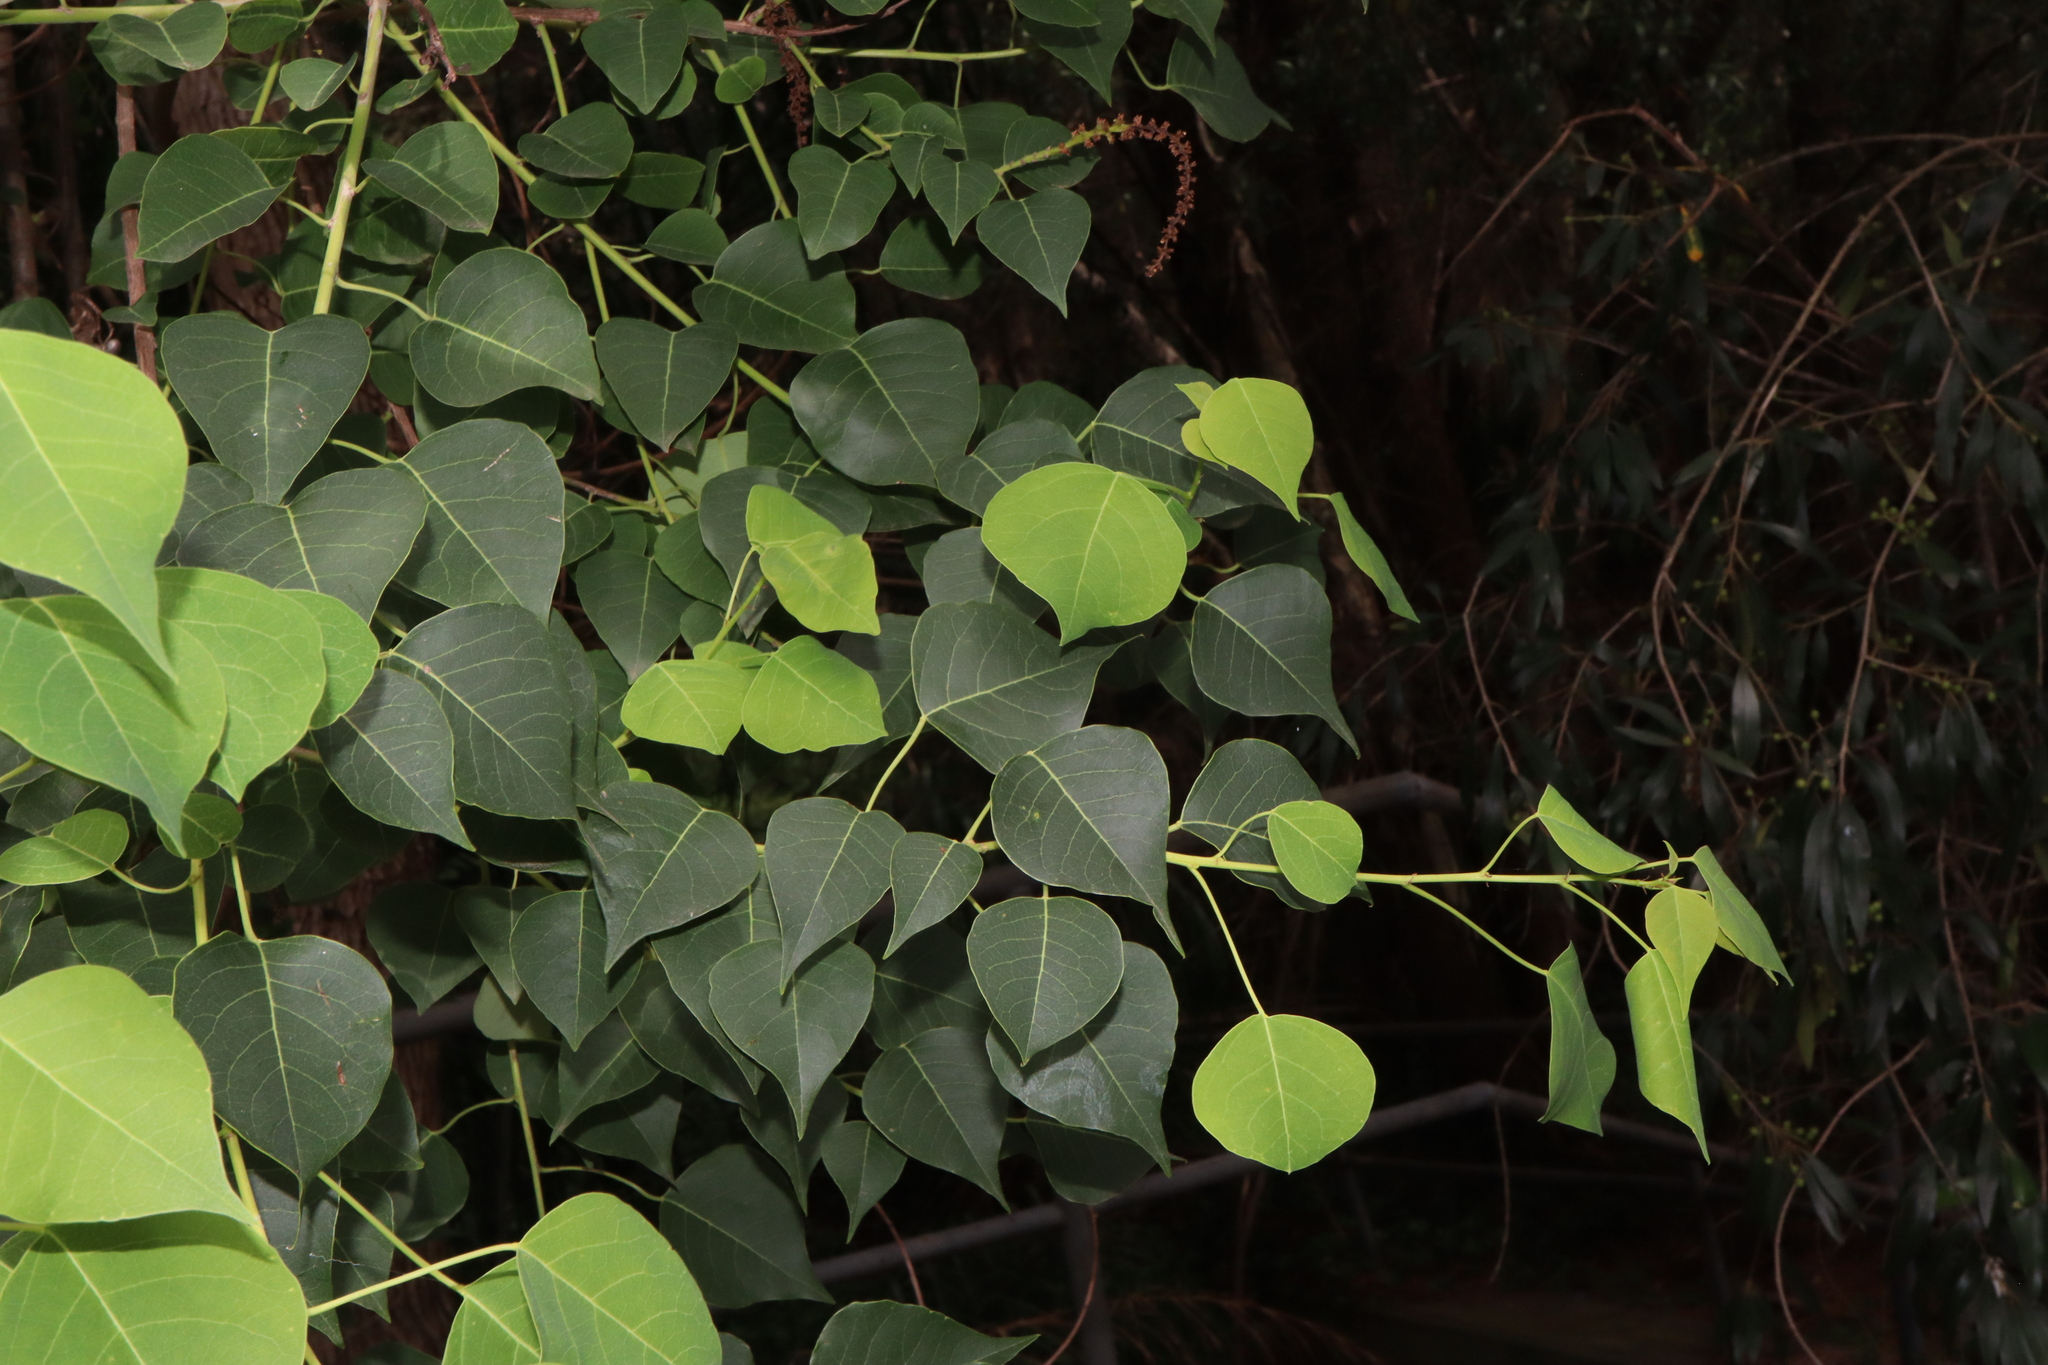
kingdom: Plantae
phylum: Tracheophyta
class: Magnoliopsida
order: Malpighiales
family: Euphorbiaceae
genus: Triadica
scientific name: Triadica sebifera
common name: Chinese tallow
